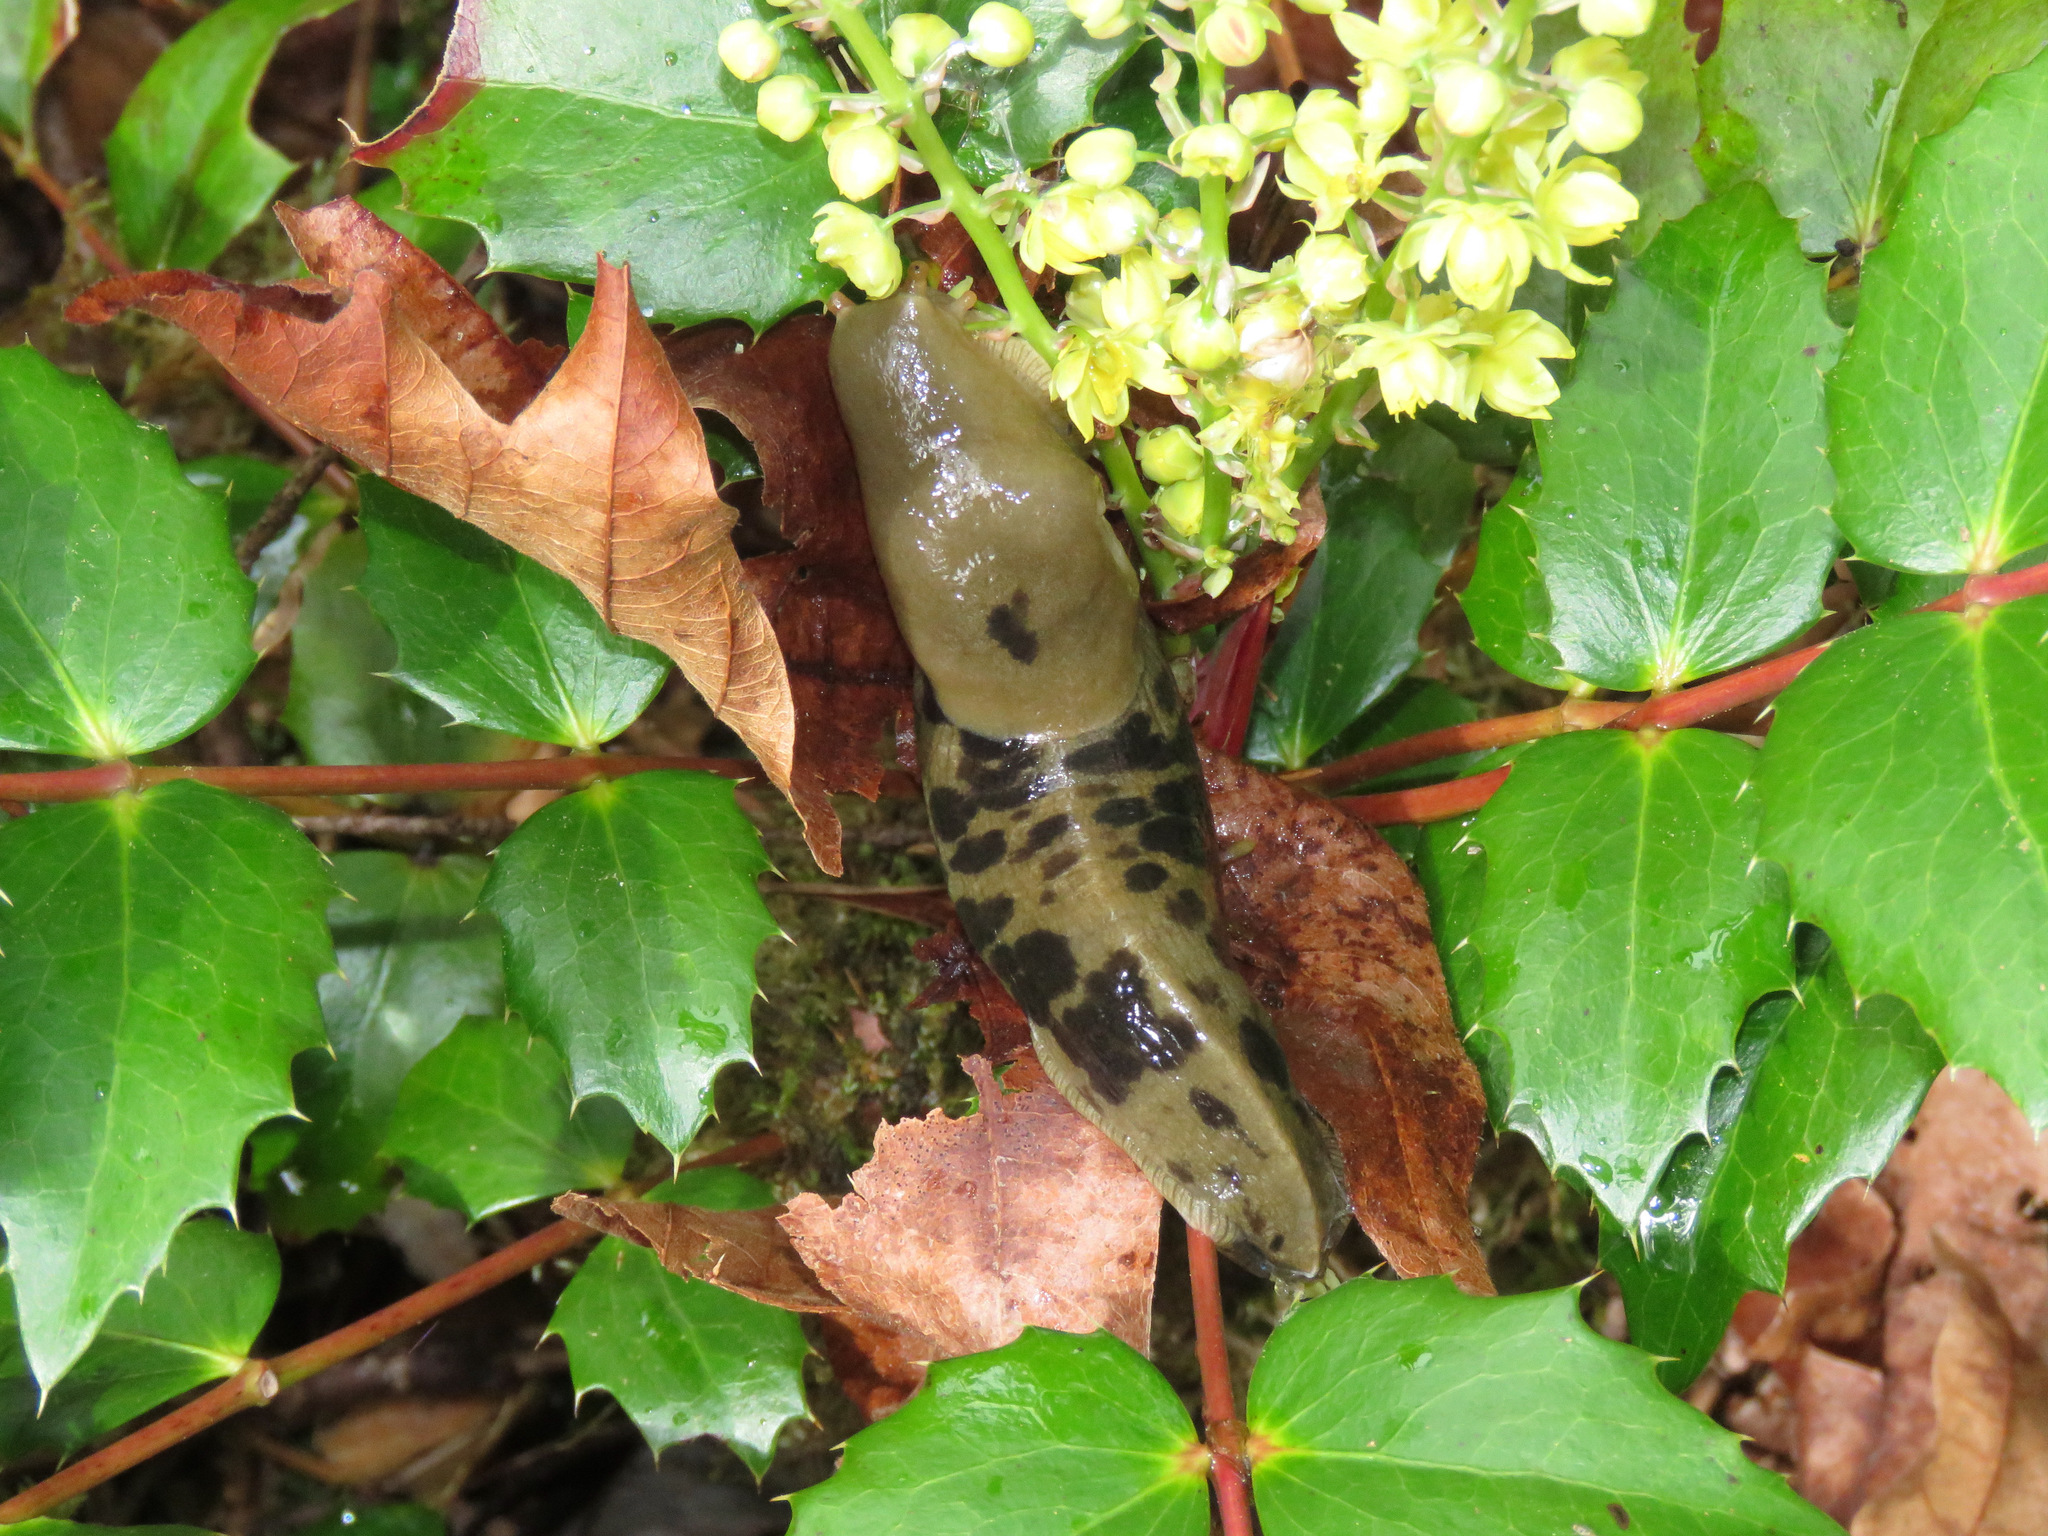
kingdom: Animalia
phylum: Mollusca
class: Gastropoda
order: Stylommatophora
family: Ariolimacidae
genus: Ariolimax
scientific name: Ariolimax columbianus
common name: Pacific banana slug
